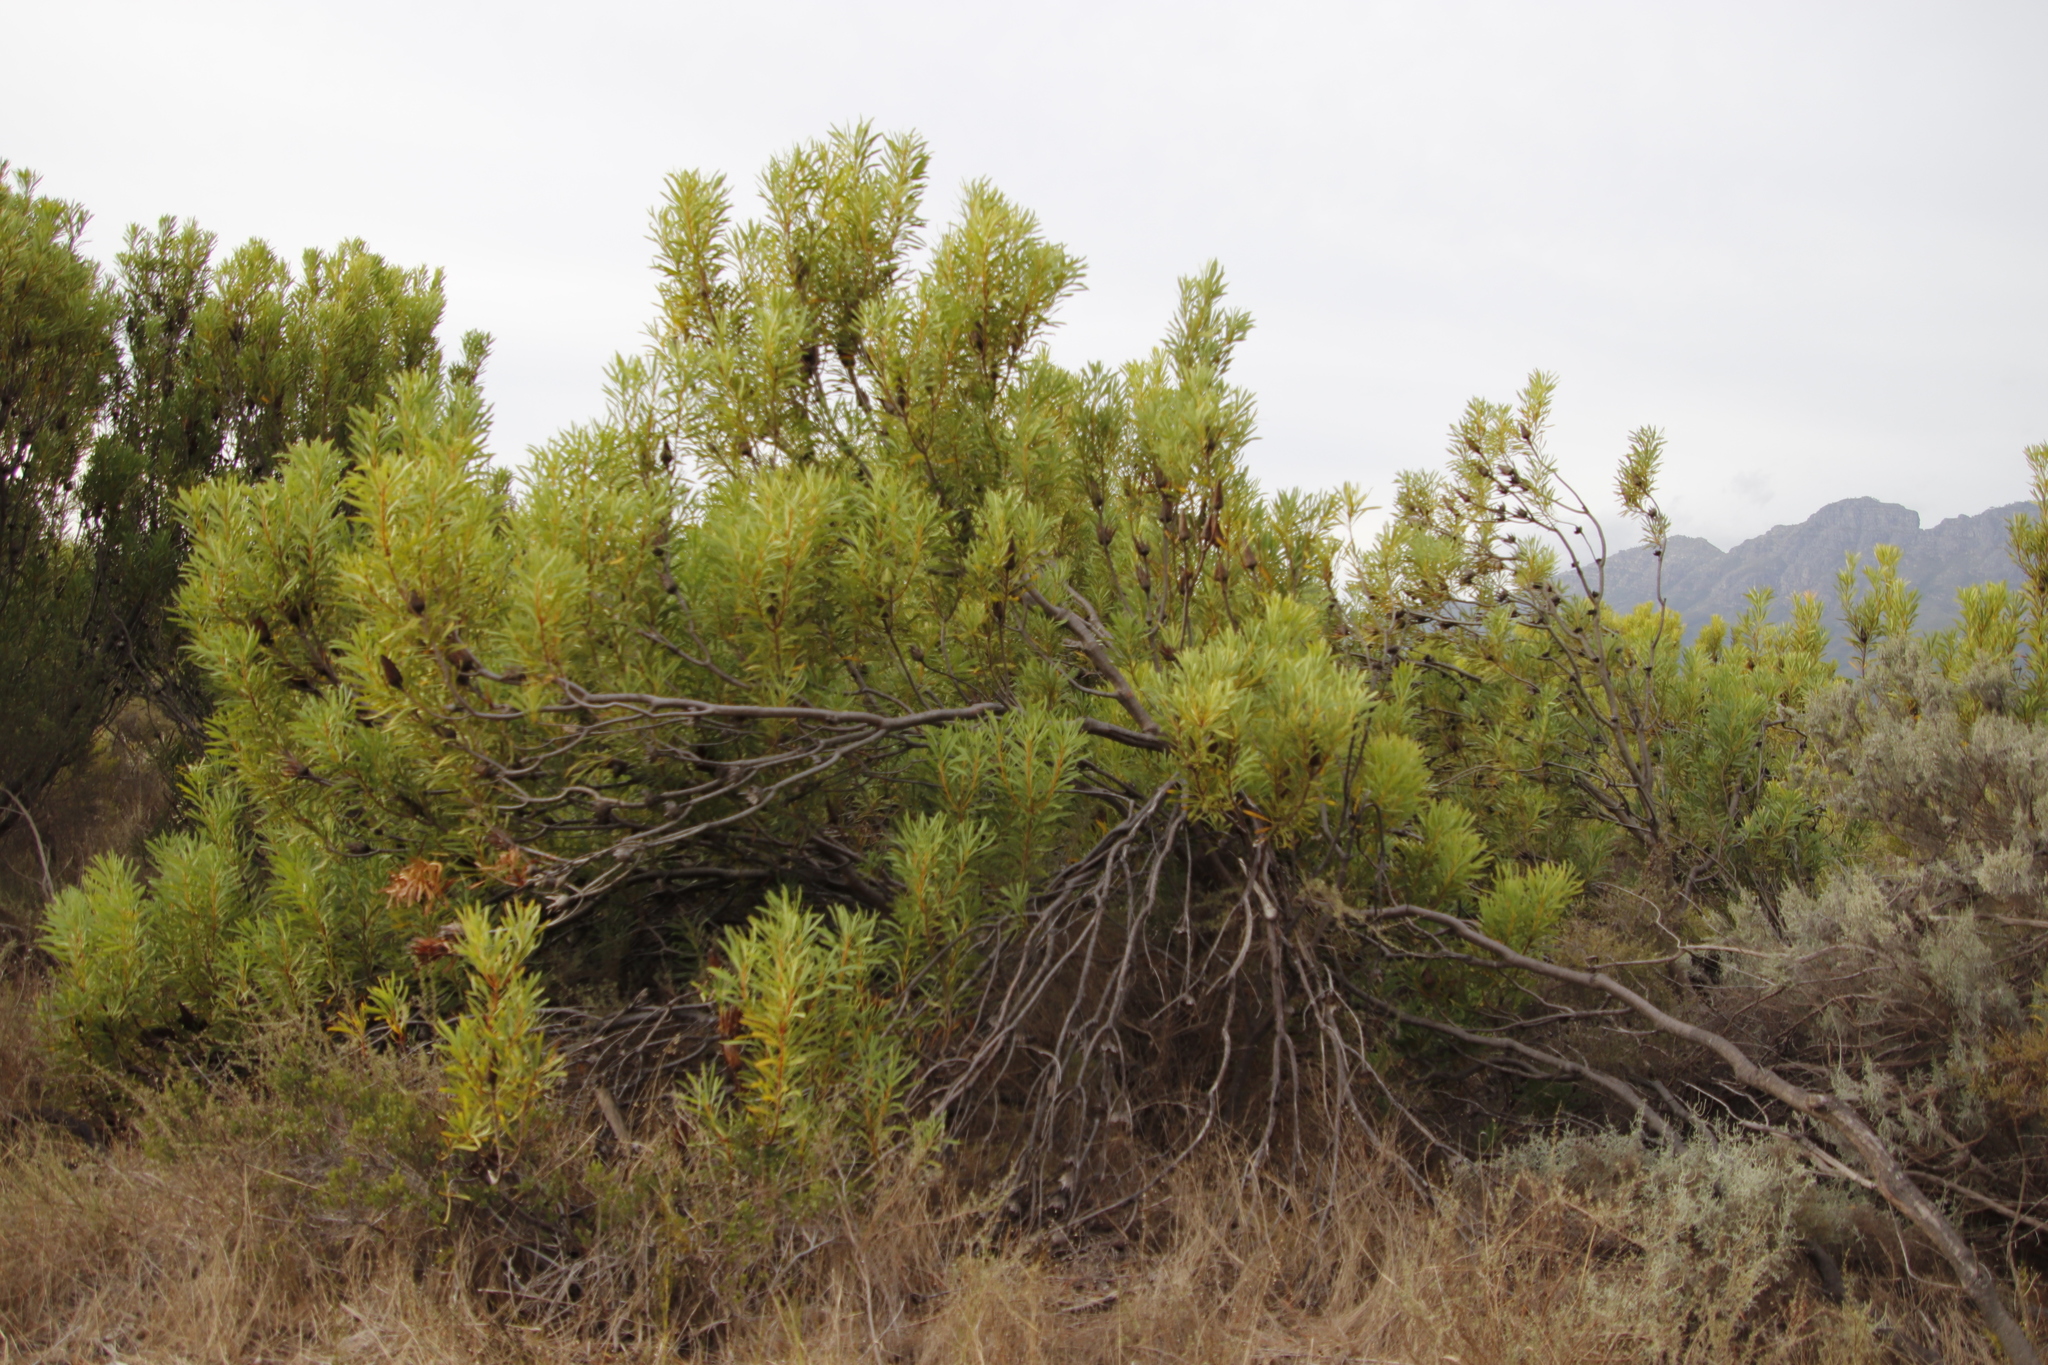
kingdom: Plantae
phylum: Tracheophyta
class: Magnoliopsida
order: Proteales
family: Proteaceae
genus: Protea
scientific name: Protea repens
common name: Sugarbush
